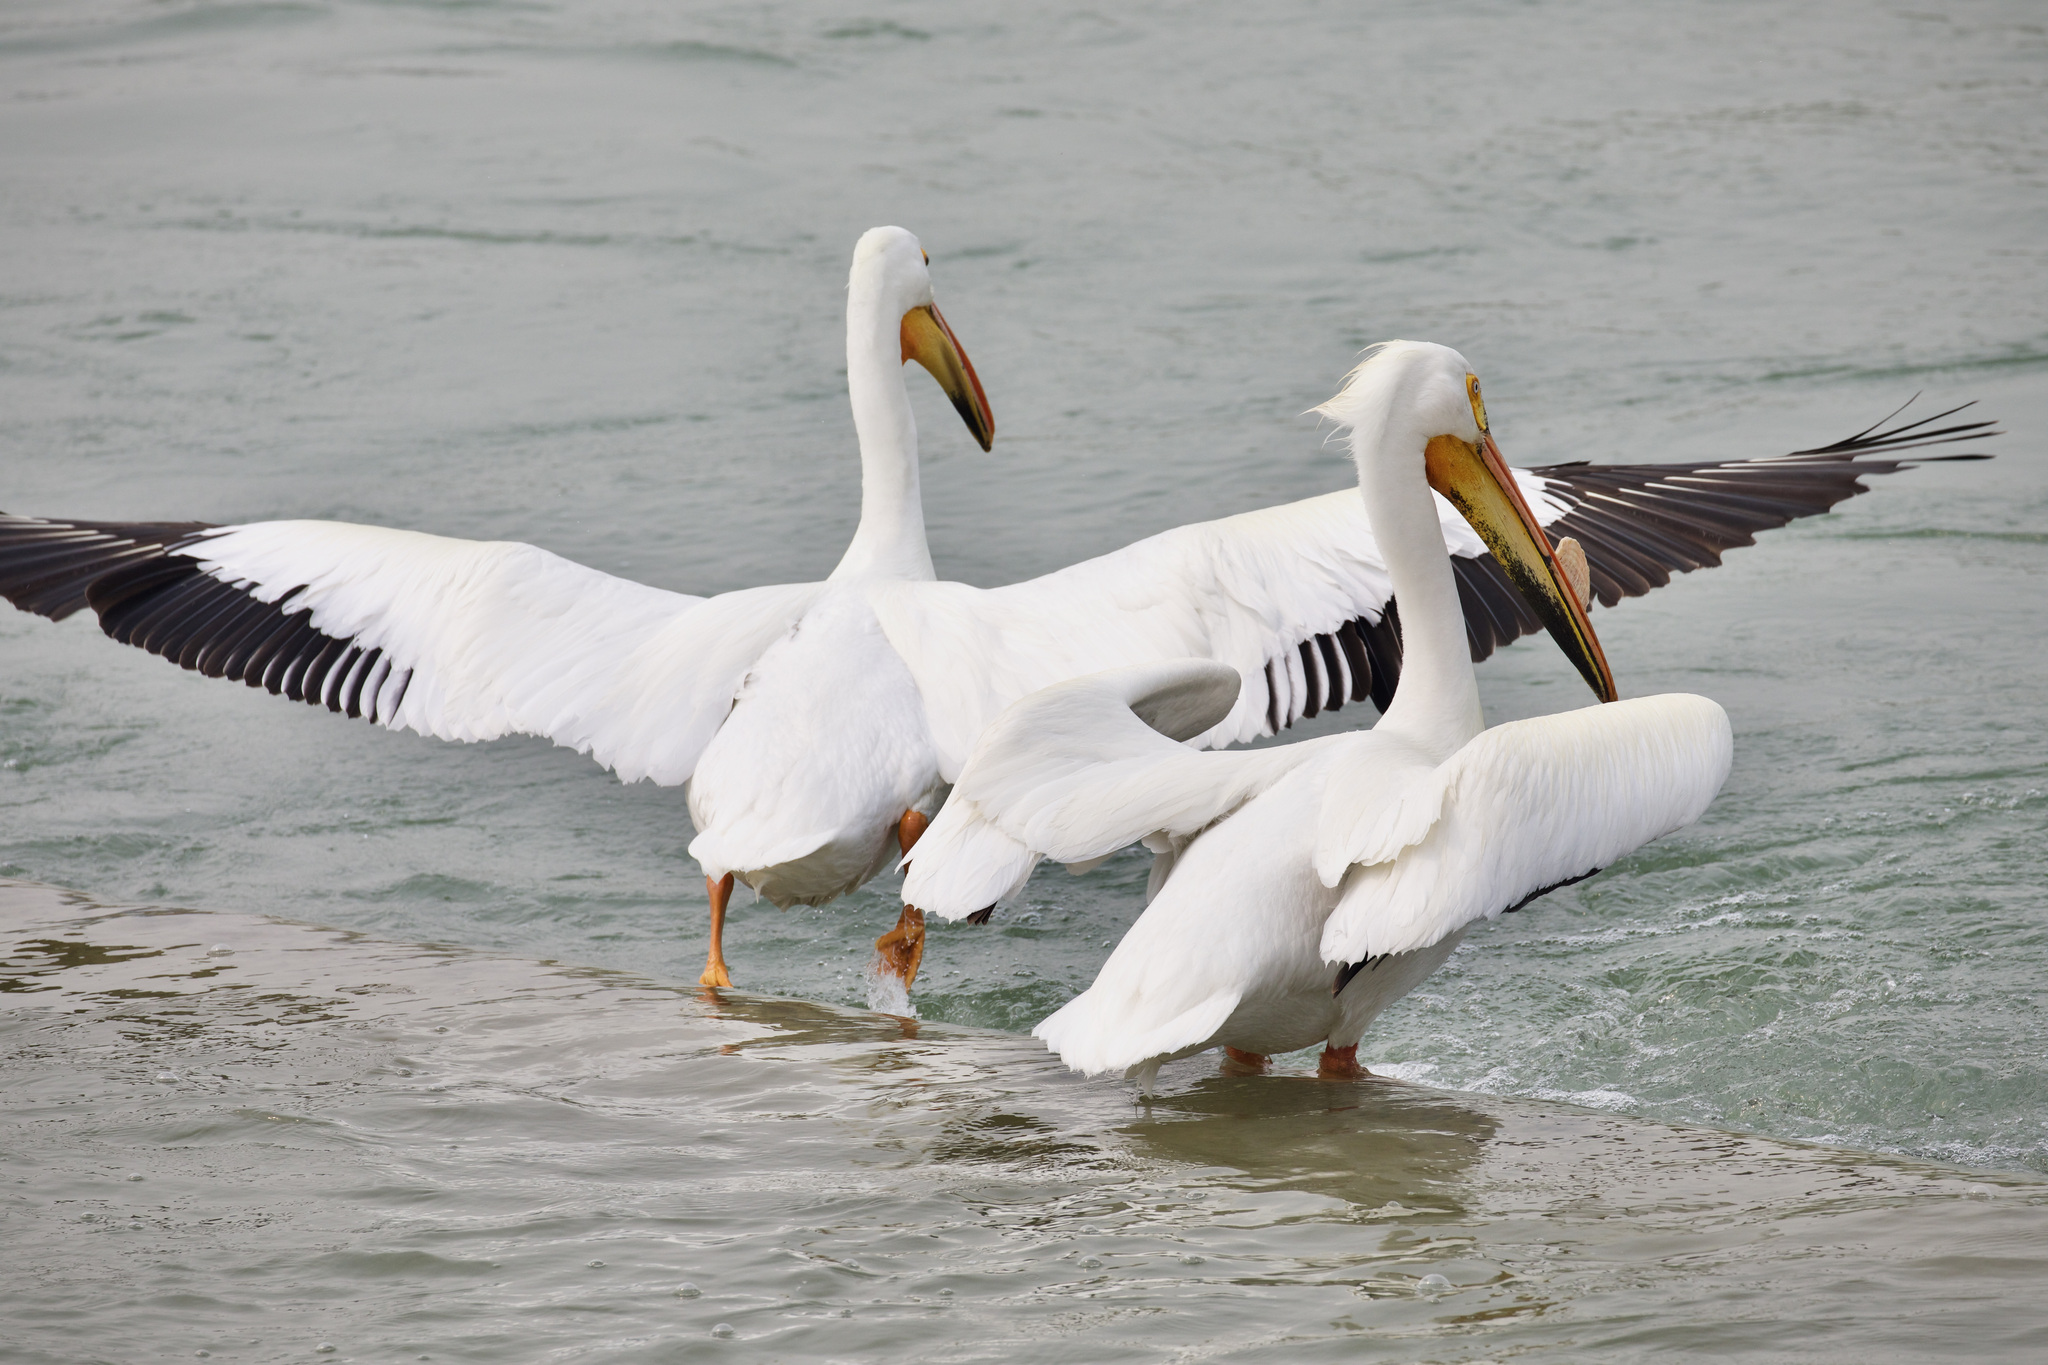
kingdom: Animalia
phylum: Chordata
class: Aves
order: Pelecaniformes
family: Pelecanidae
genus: Pelecanus
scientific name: Pelecanus erythrorhynchos
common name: American white pelican
